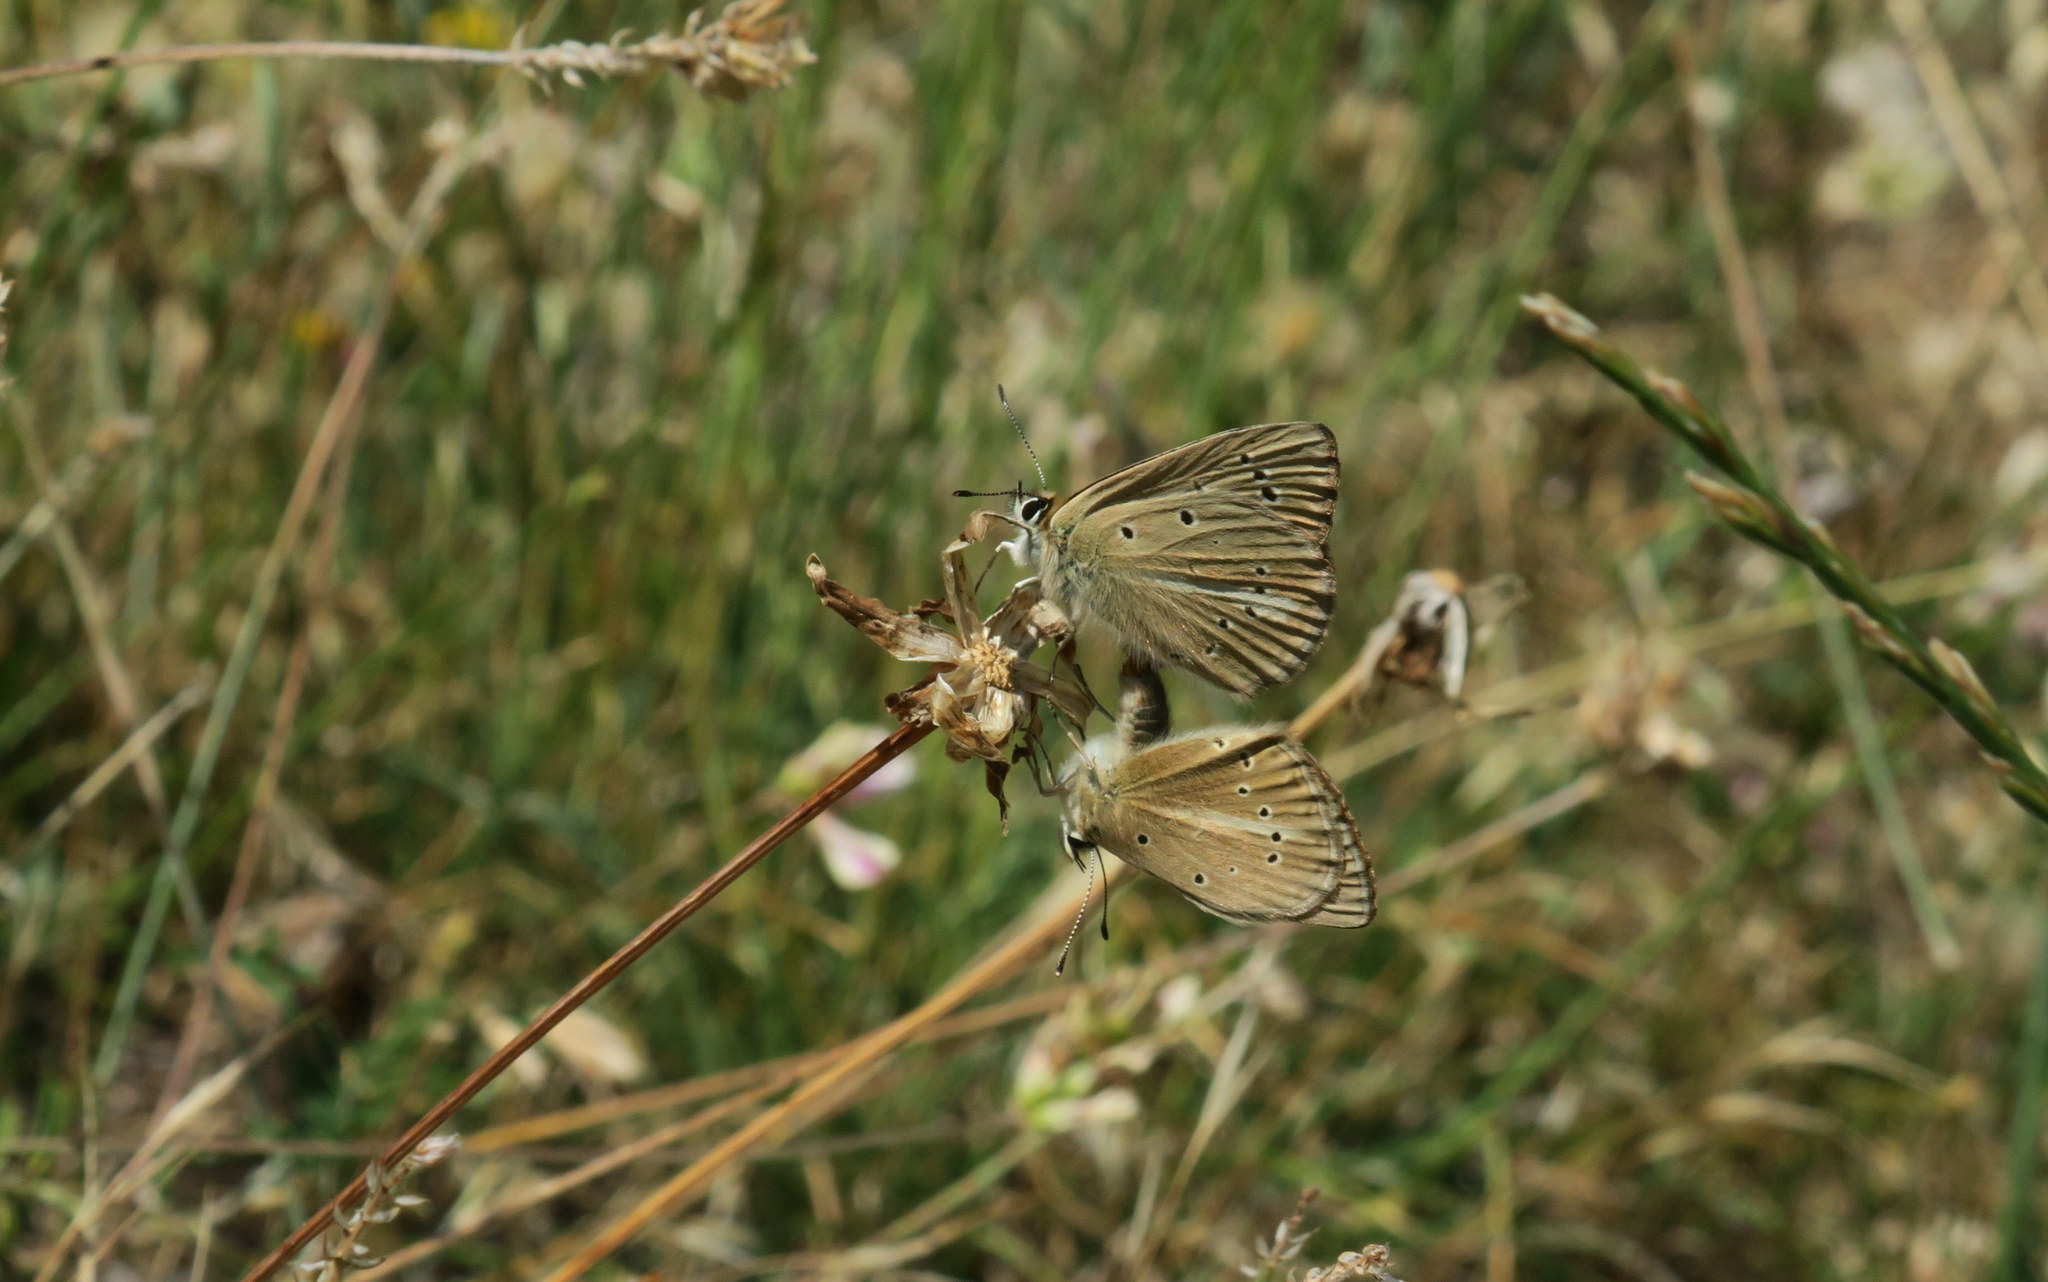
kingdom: Animalia
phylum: Arthropoda
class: Insecta
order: Lepidoptera
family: Lycaenidae
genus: Polyommatus
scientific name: Polyommatus ripartii
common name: Ripart's anomalous blue
